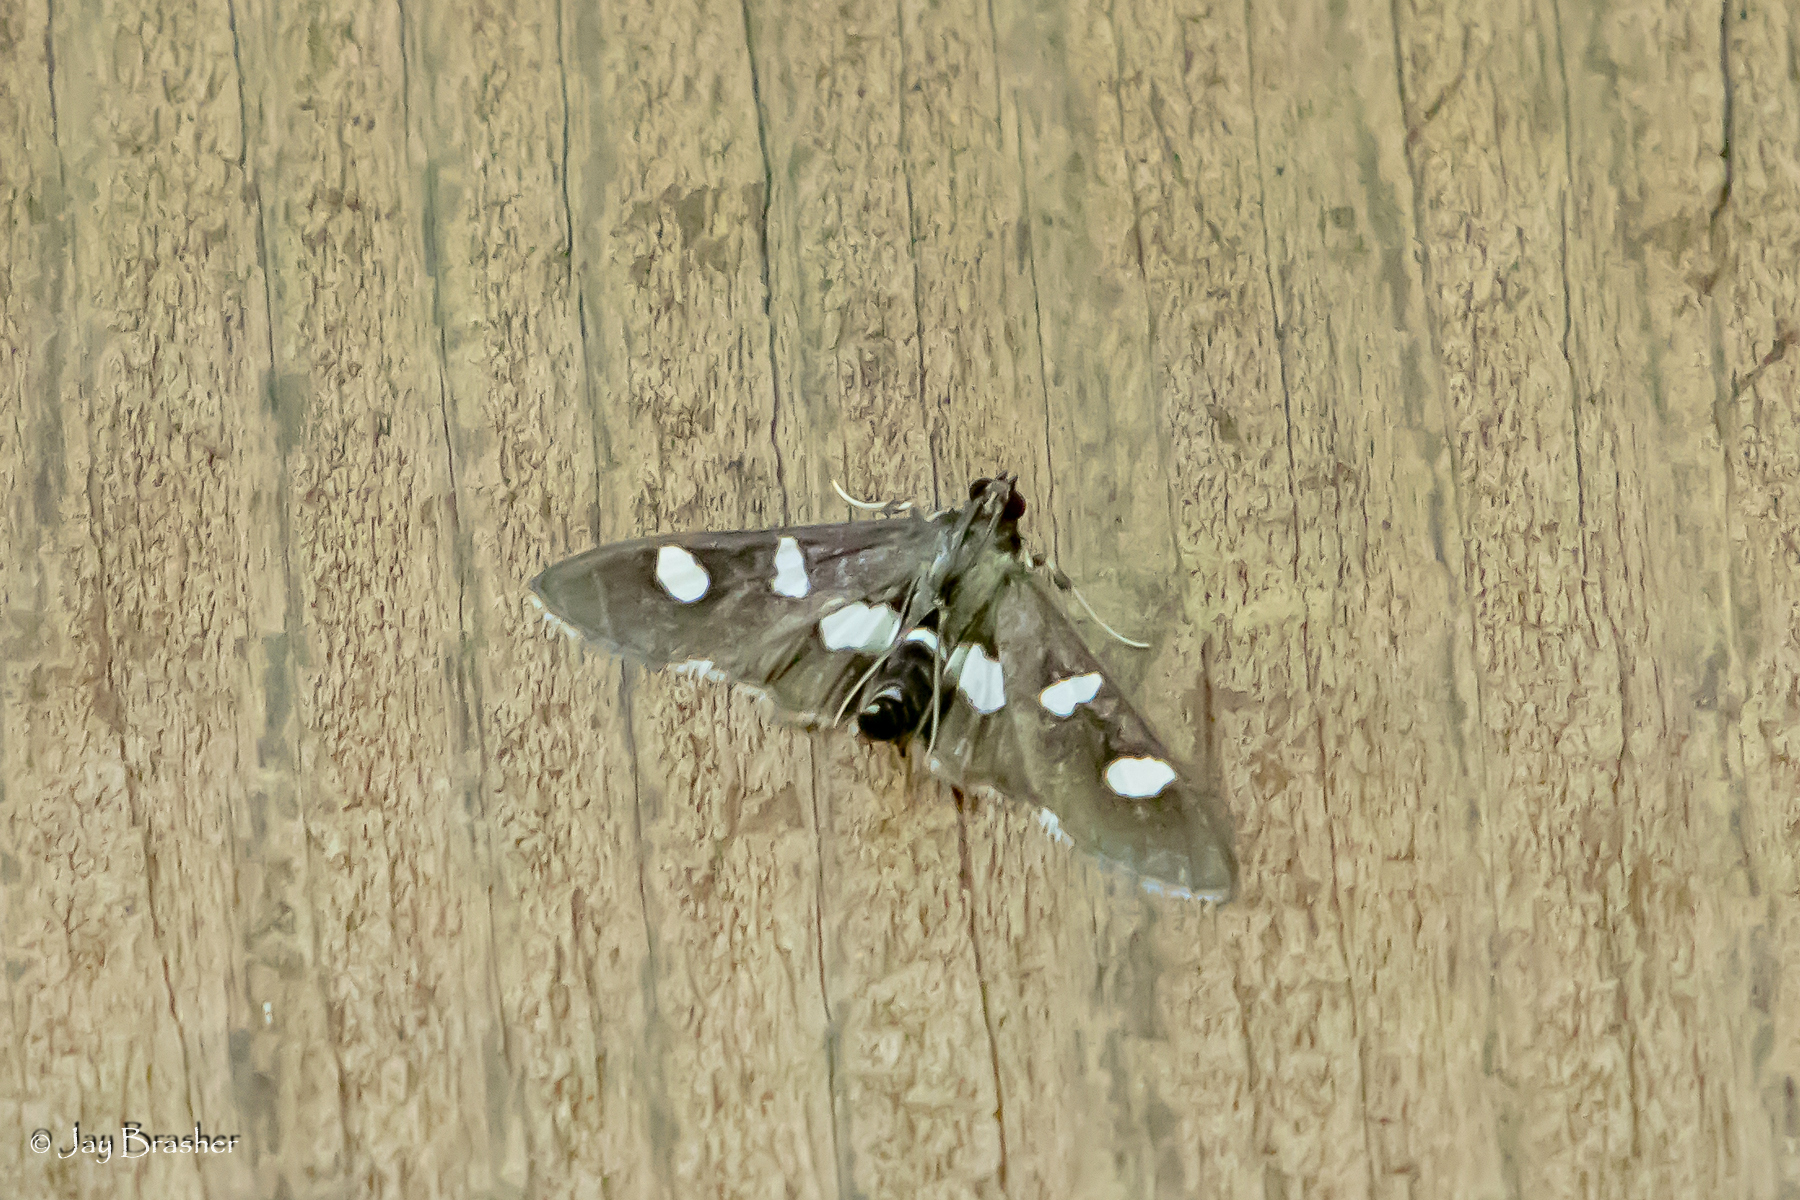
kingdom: Animalia
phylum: Arthropoda
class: Insecta
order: Lepidoptera
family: Crambidae
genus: Desmia
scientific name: Desmia funeralis
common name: Grape leaf folder moth
